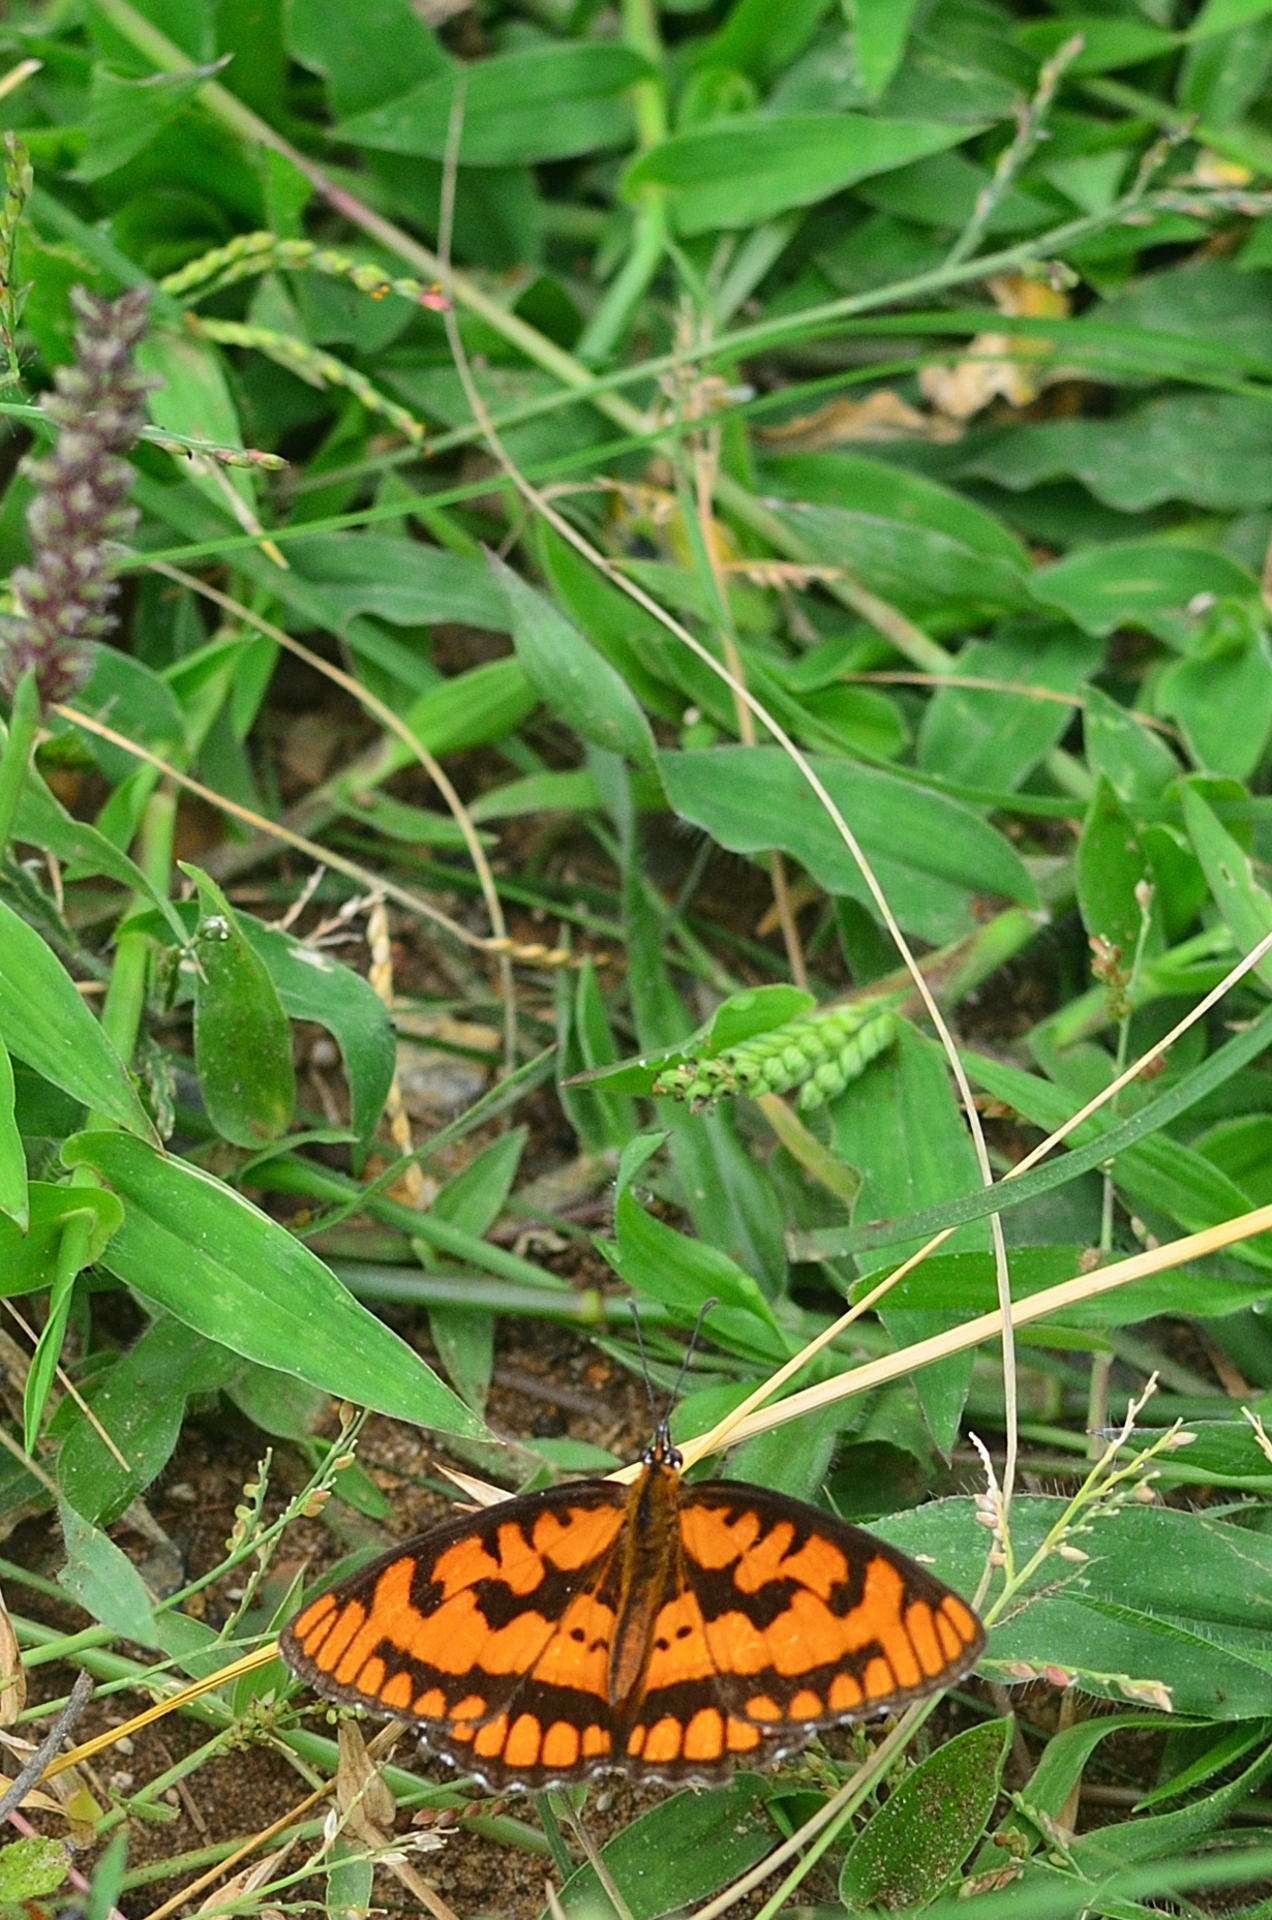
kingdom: Animalia
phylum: Arthropoda
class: Insecta
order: Lepidoptera
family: Nymphalidae
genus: Byblia
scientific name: Byblia ilithyia
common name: Spotted joker
